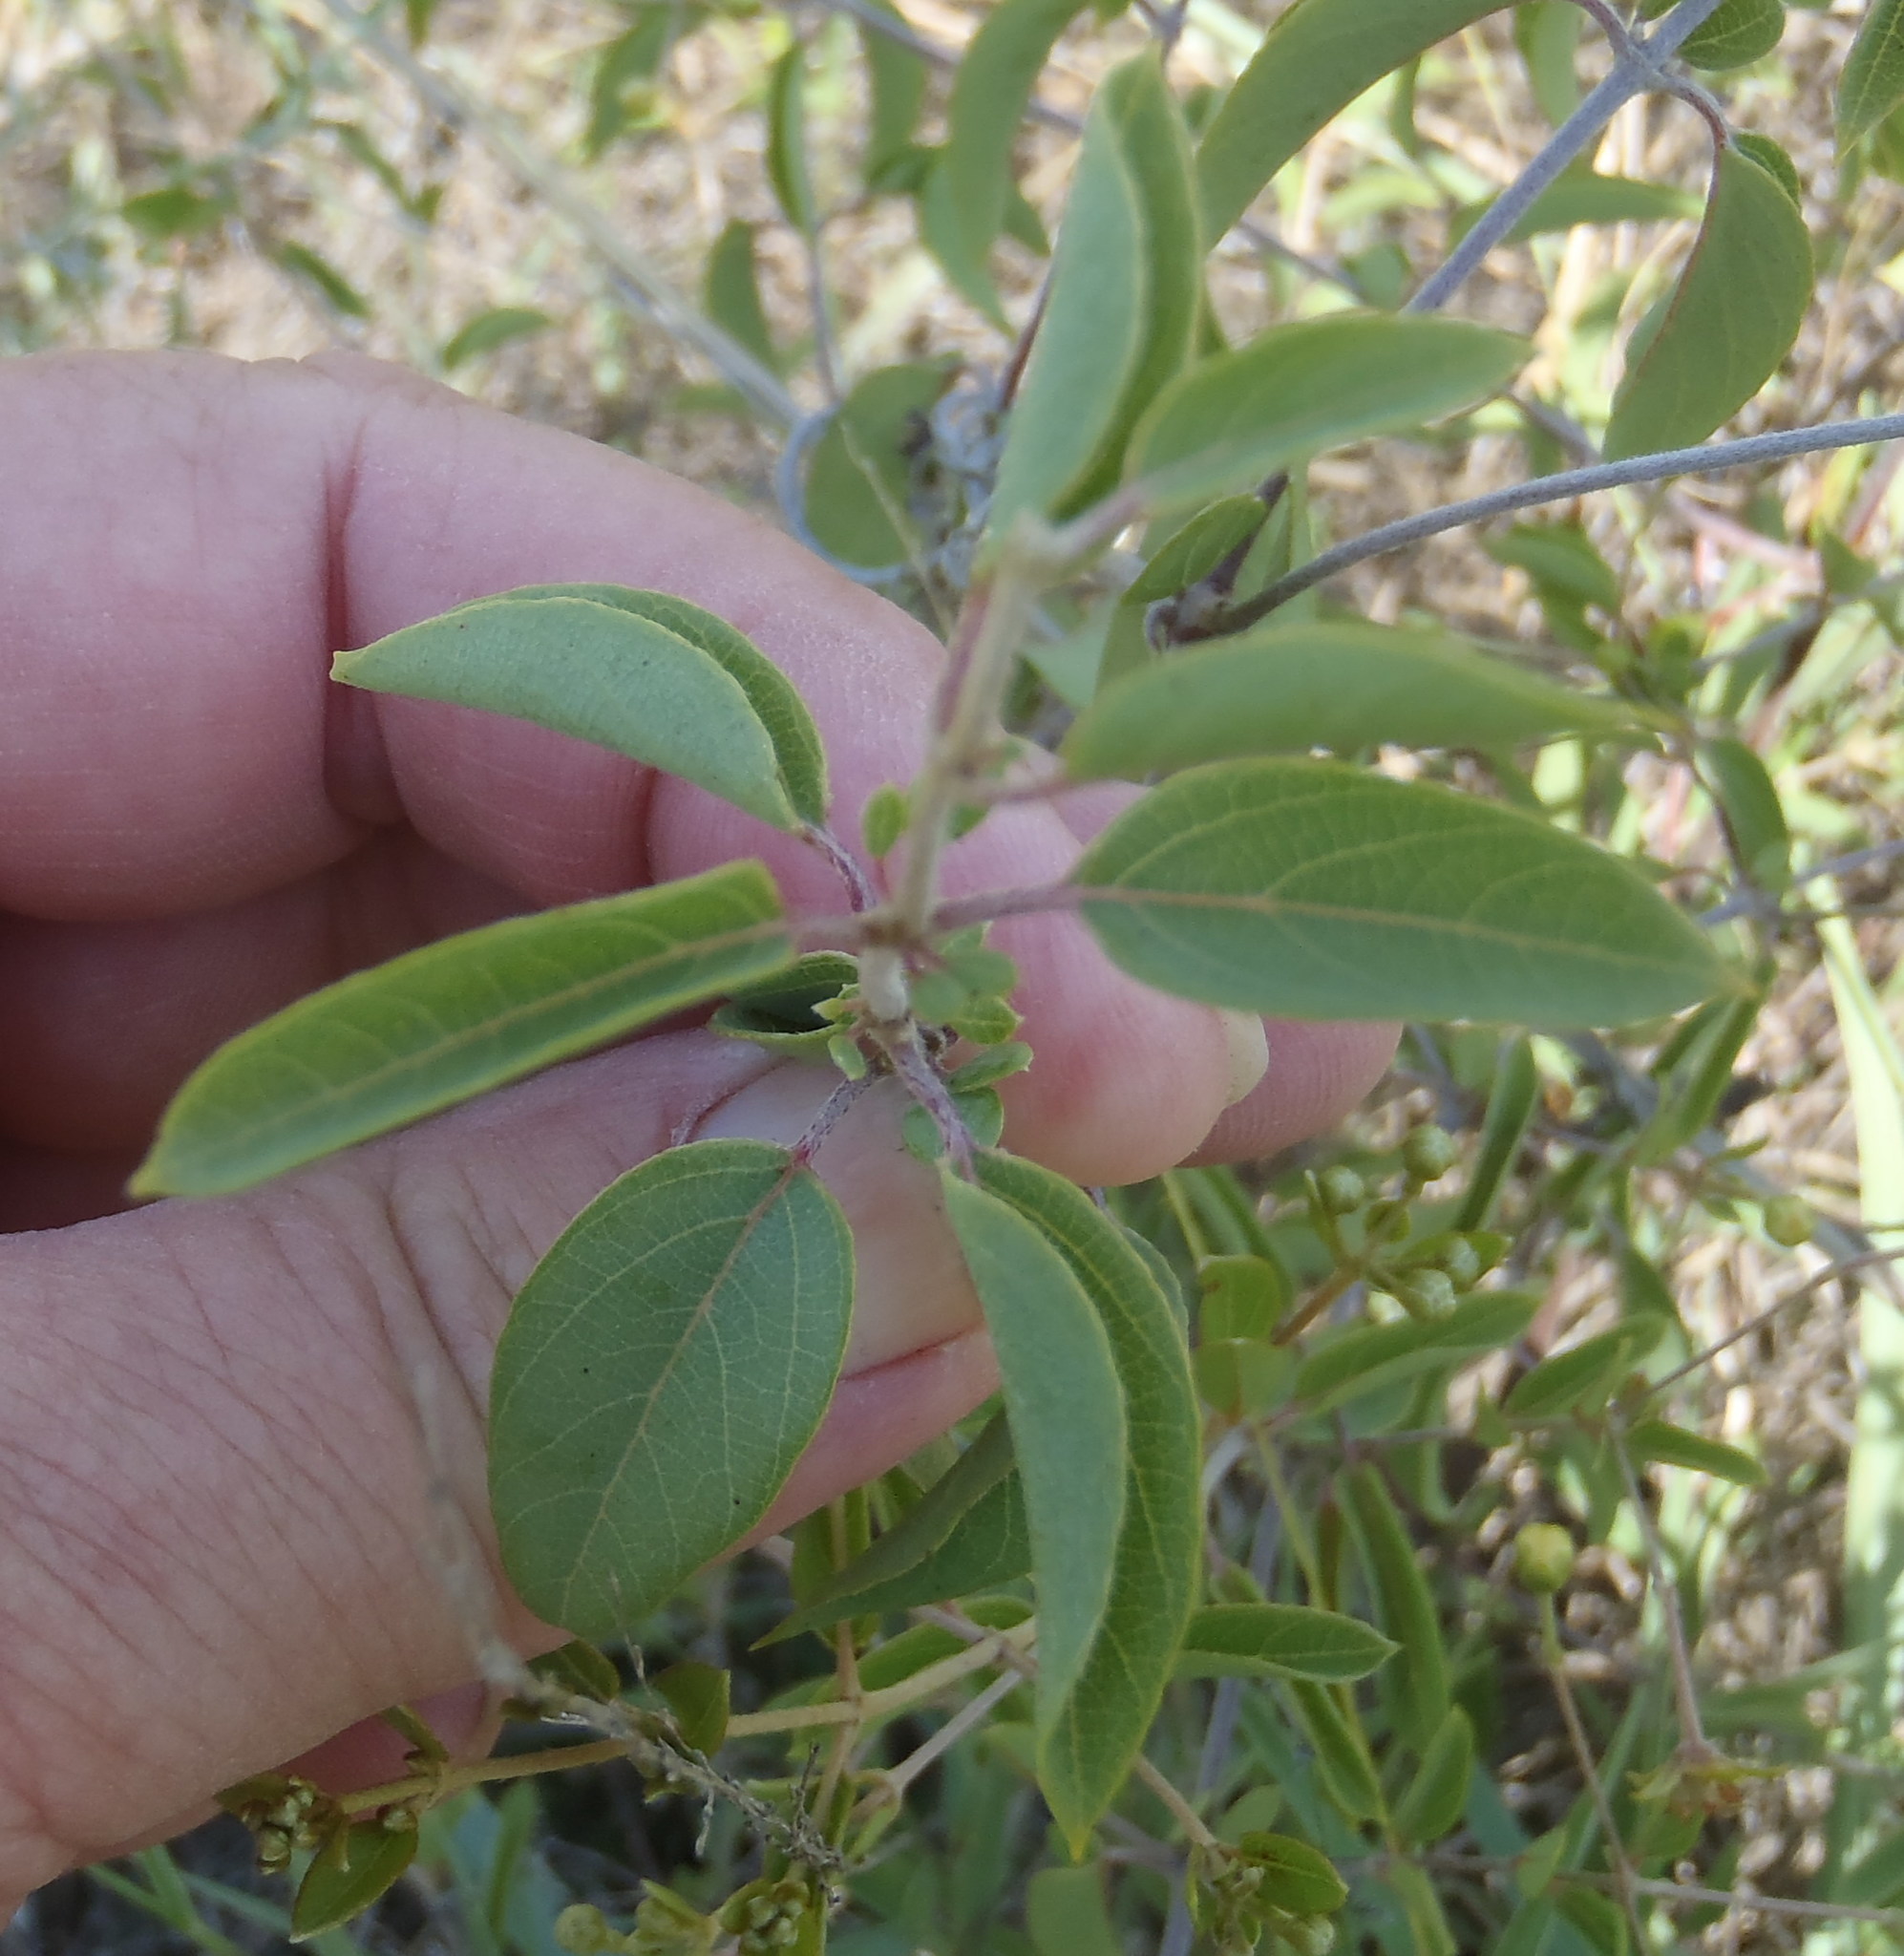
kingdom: Plantae
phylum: Tracheophyta
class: Magnoliopsida
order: Malpighiales
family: Malpighiaceae
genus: Sphedamnocarpus
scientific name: Sphedamnocarpus galphimiifolius
